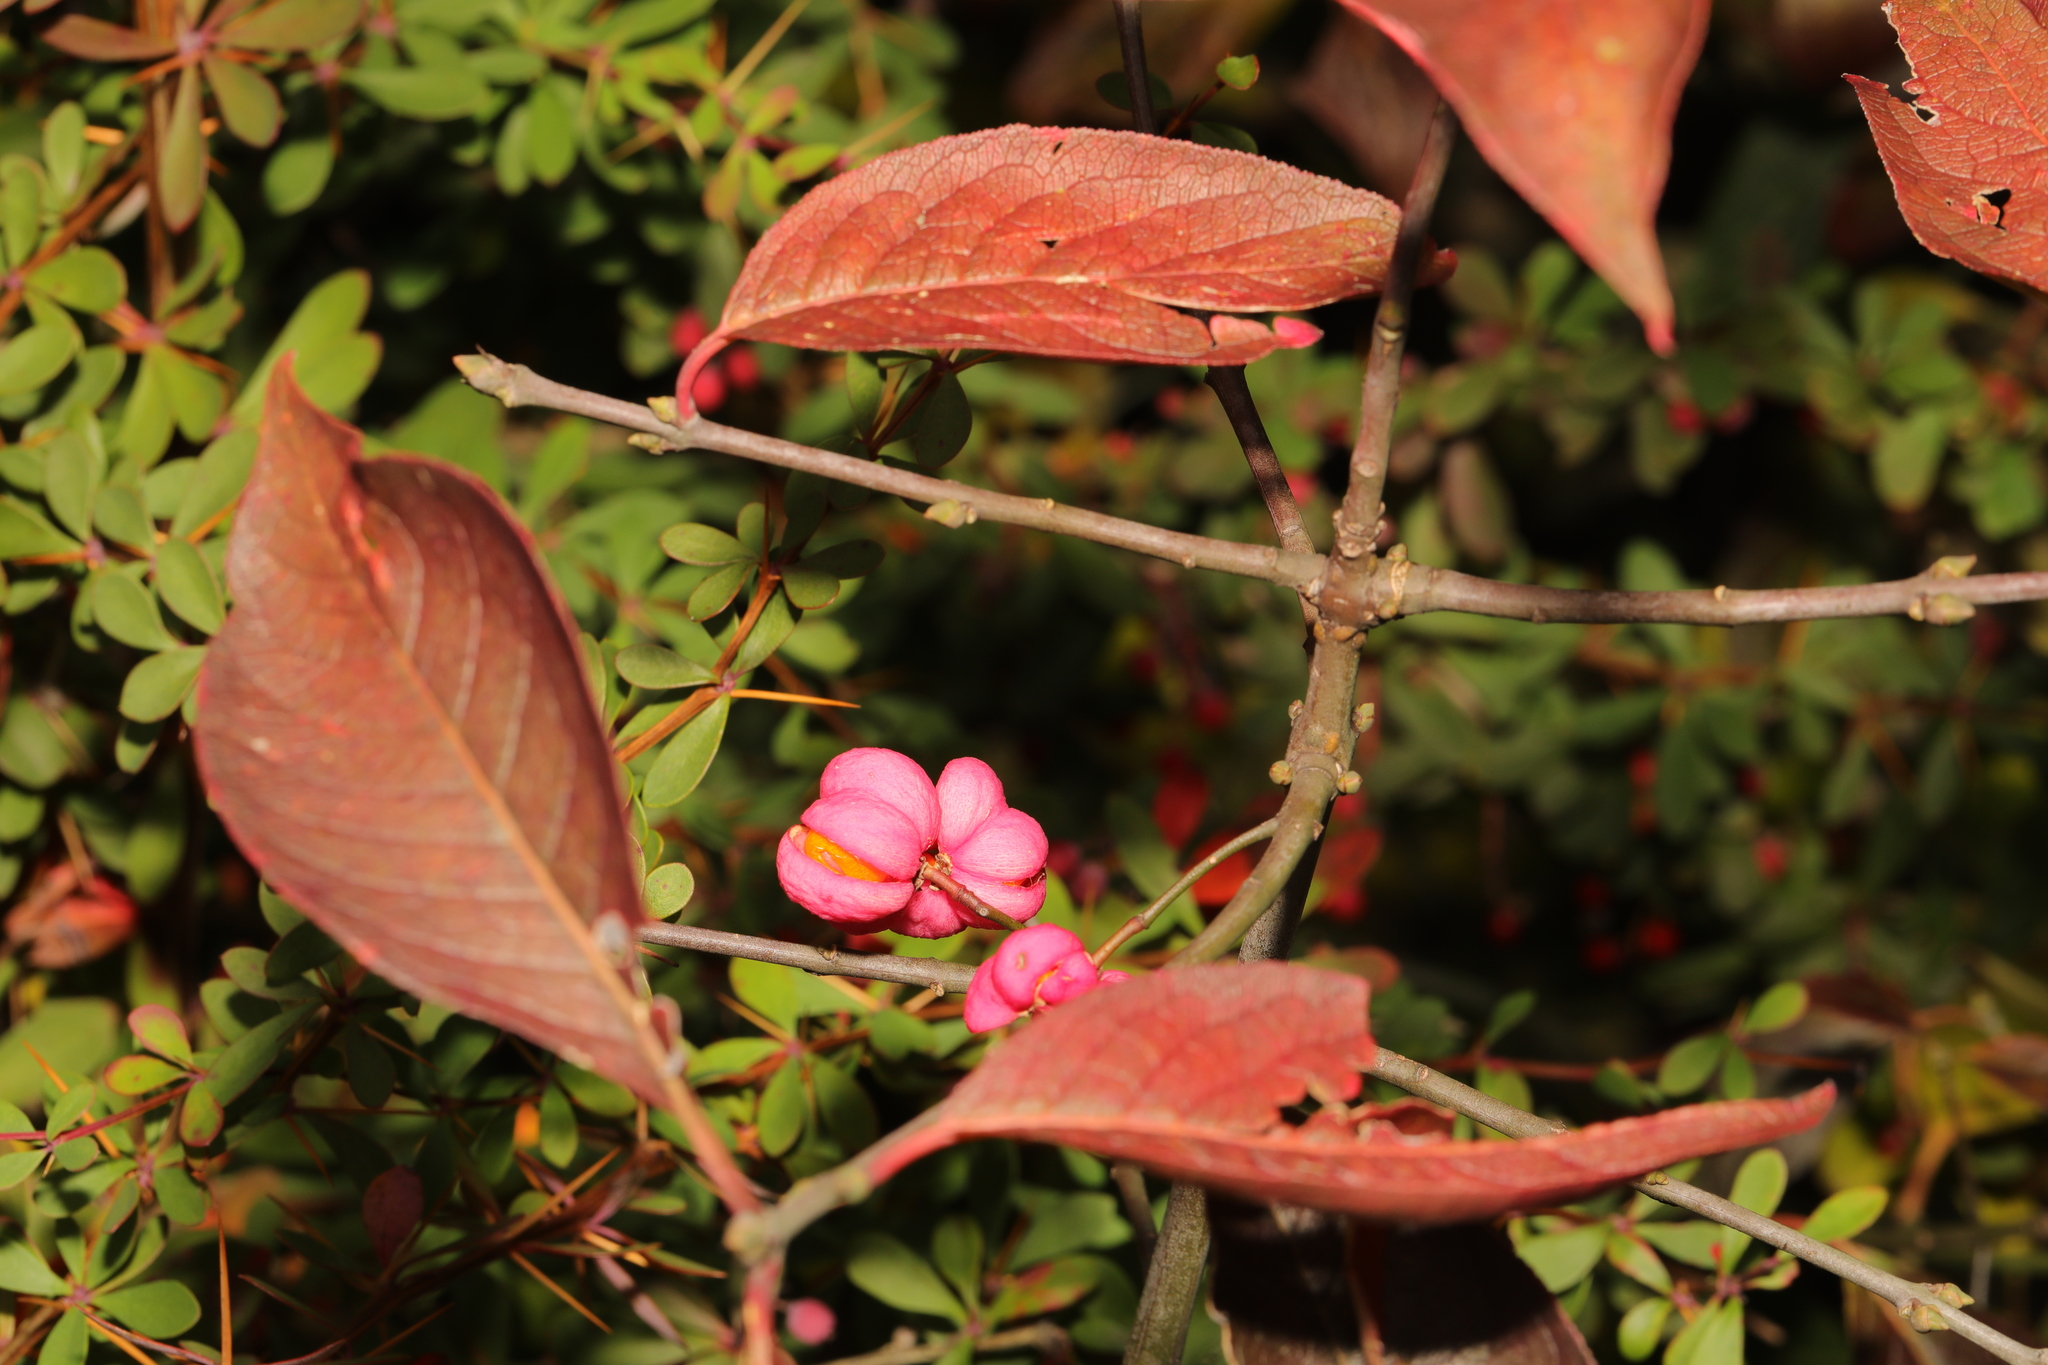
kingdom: Plantae
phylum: Tracheophyta
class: Magnoliopsida
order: Celastrales
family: Celastraceae
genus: Euonymus
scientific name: Euonymus europaeus
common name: Spindle
